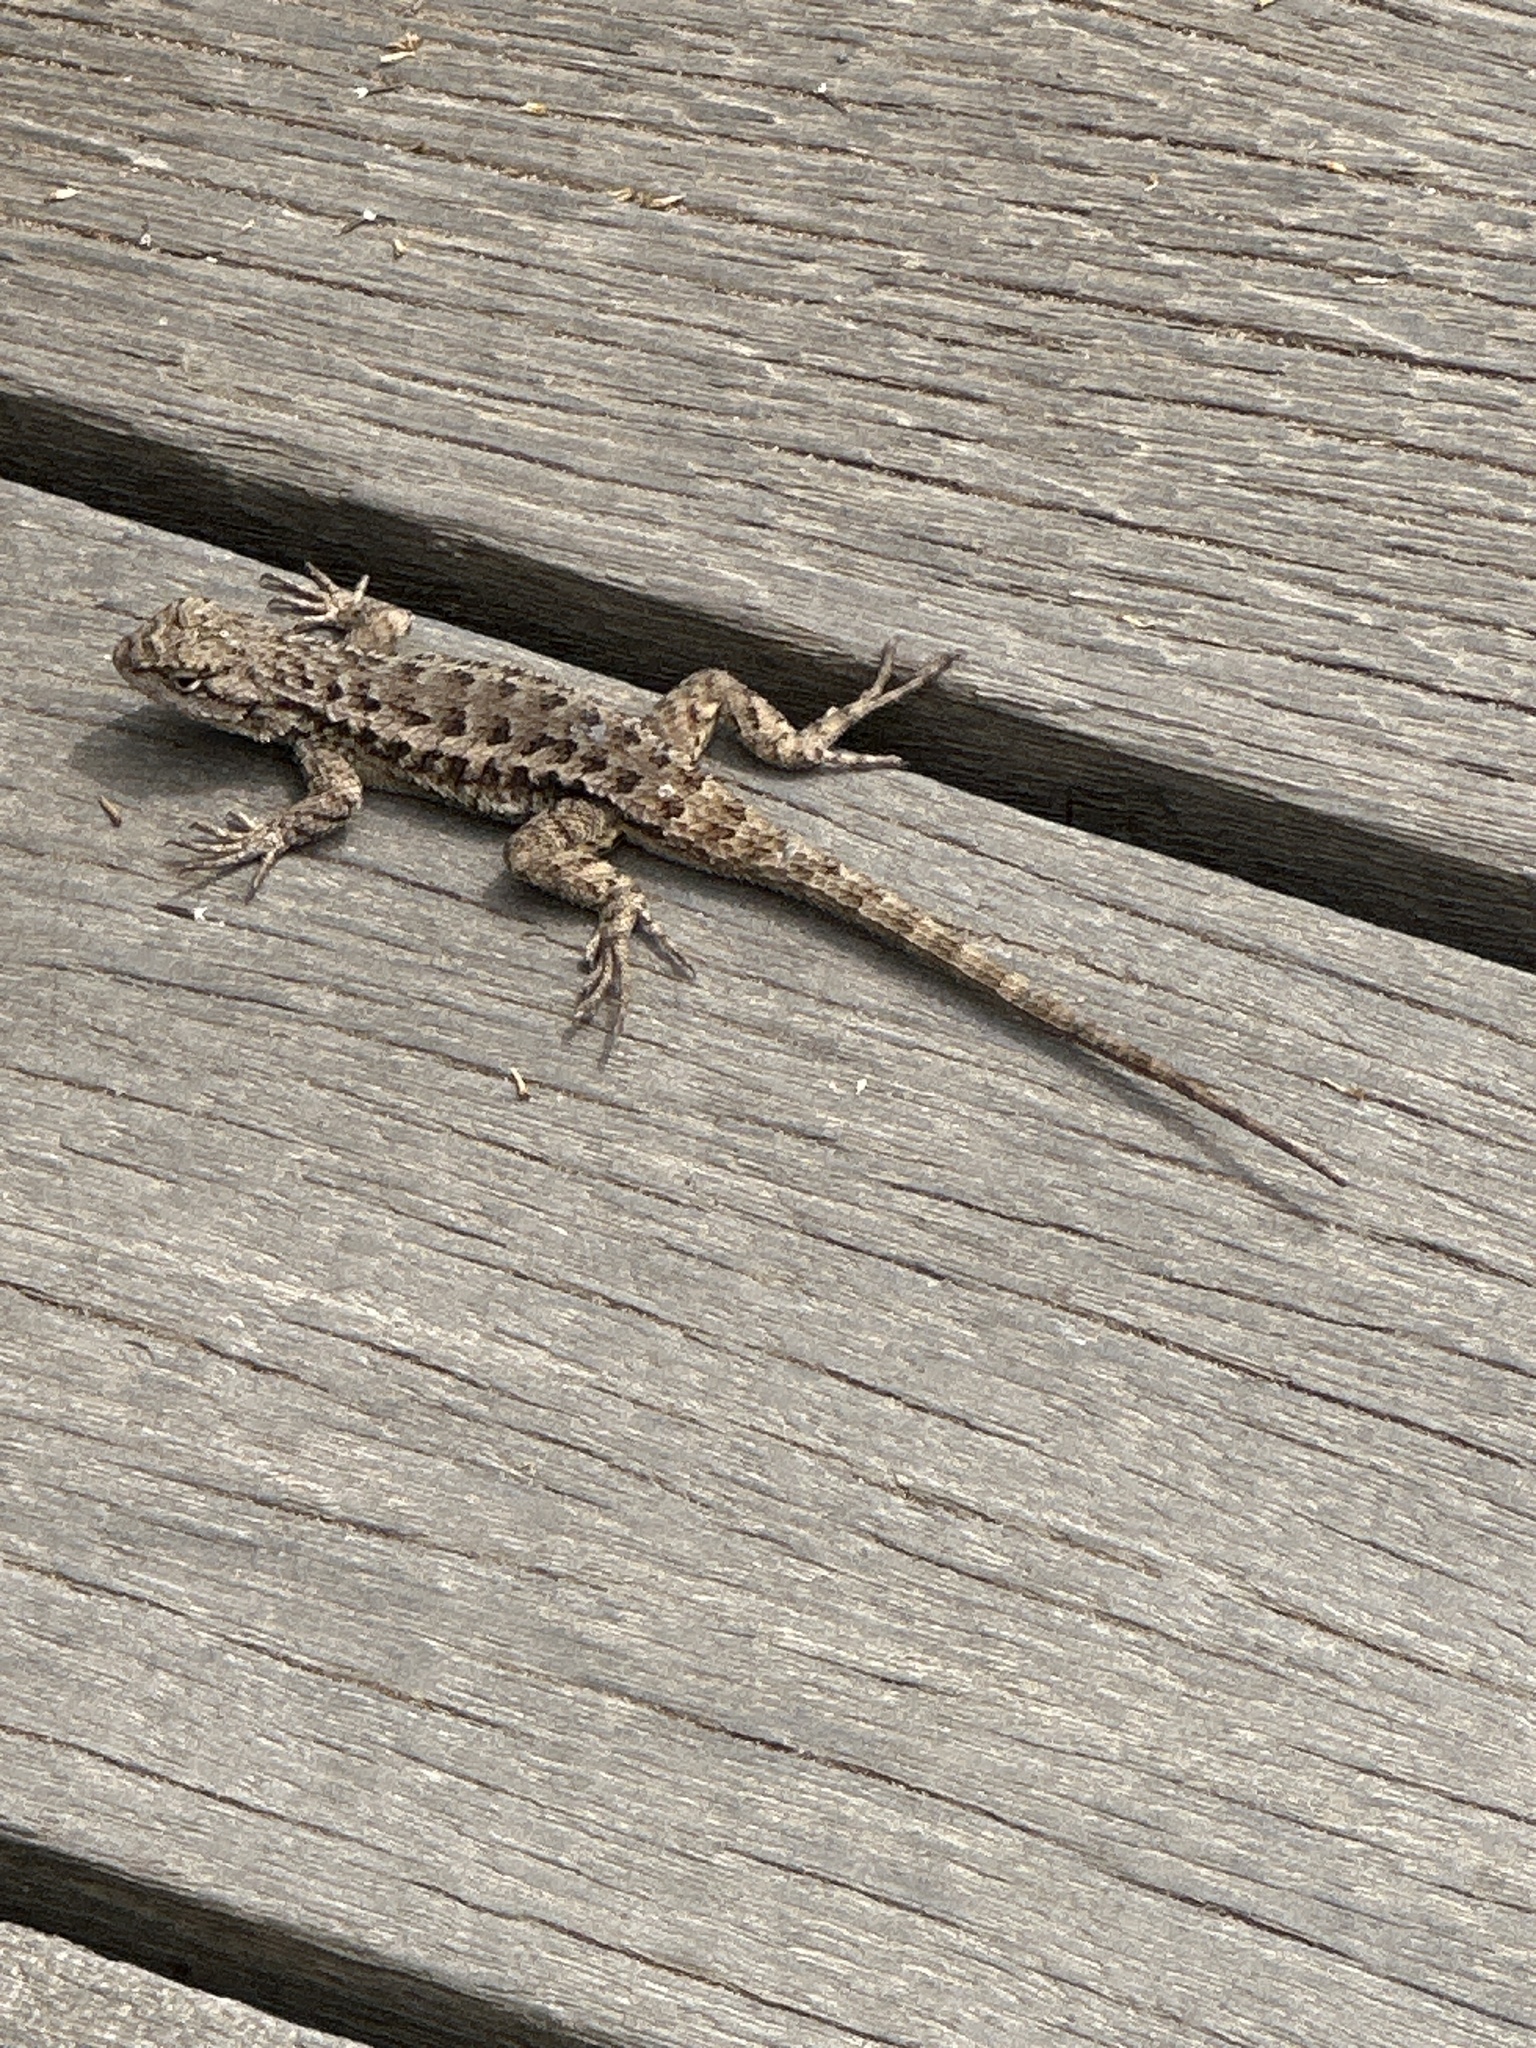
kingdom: Animalia
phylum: Chordata
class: Squamata
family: Phrynosomatidae
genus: Sceloporus
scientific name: Sceloporus occidentalis
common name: Western fence lizard
